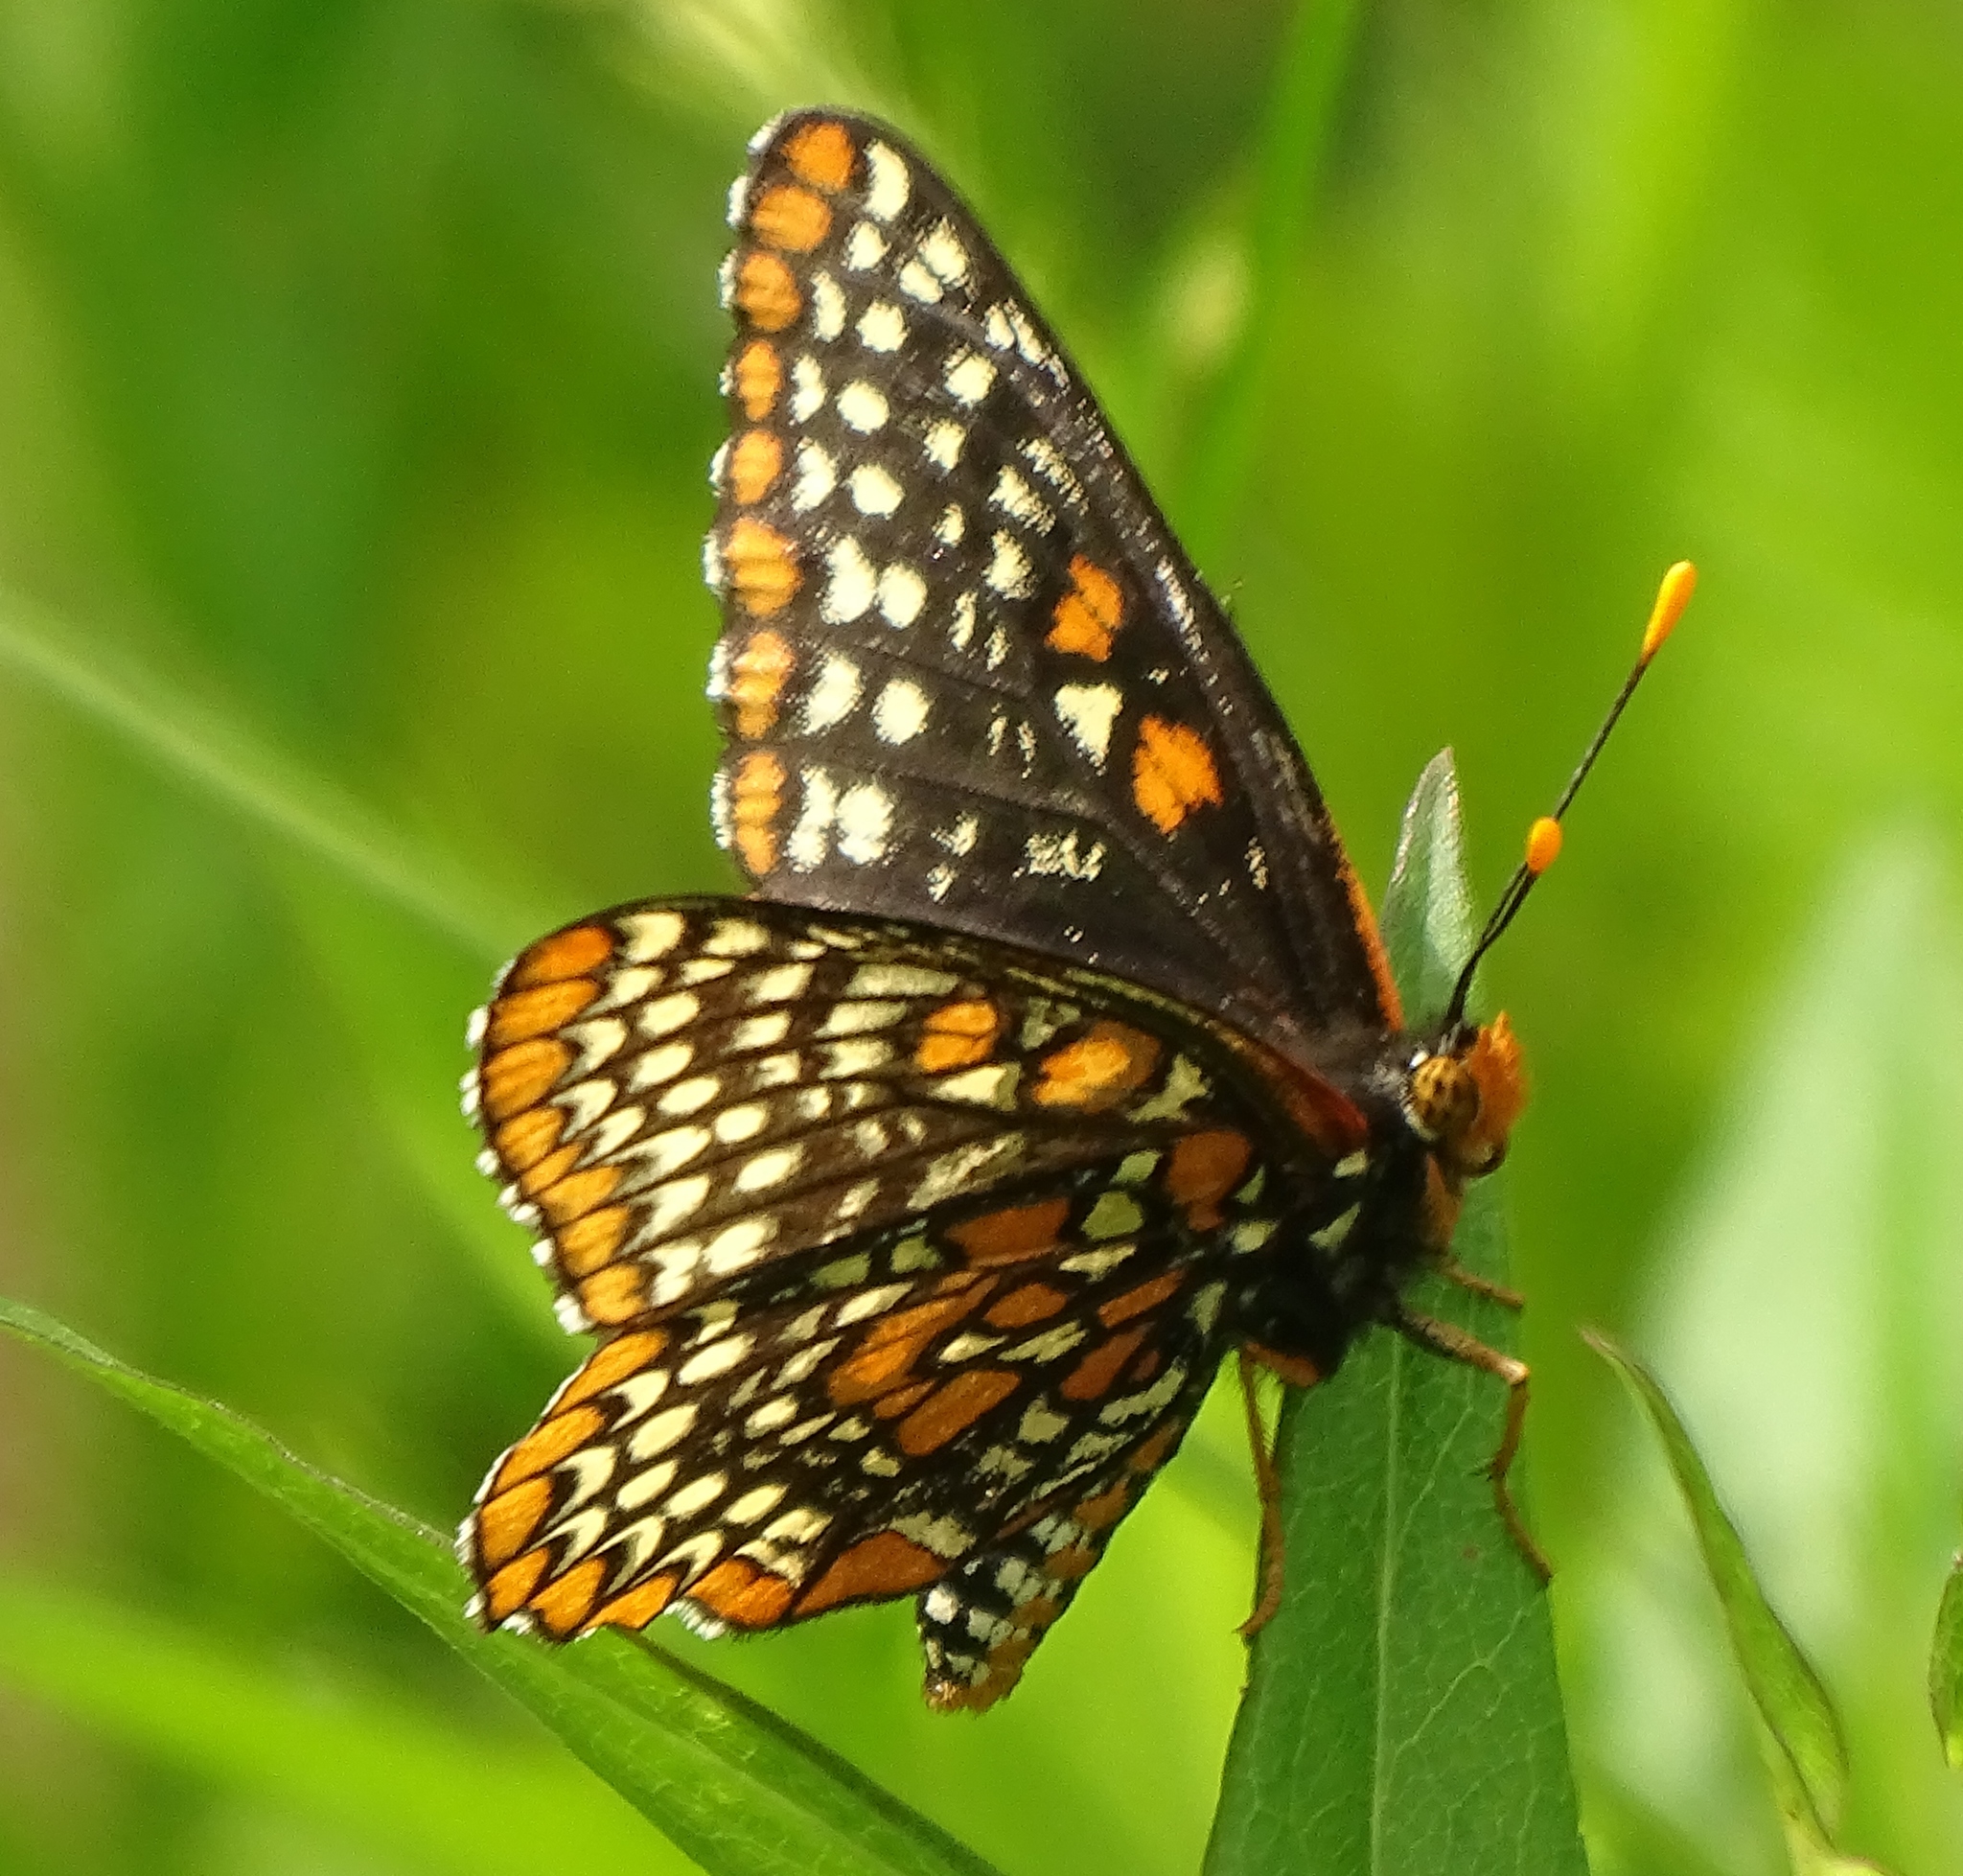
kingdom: Animalia
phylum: Arthropoda
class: Insecta
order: Lepidoptera
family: Nymphalidae
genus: Euphydryas
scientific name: Euphydryas phaeton
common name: Baltimore checkerspot
